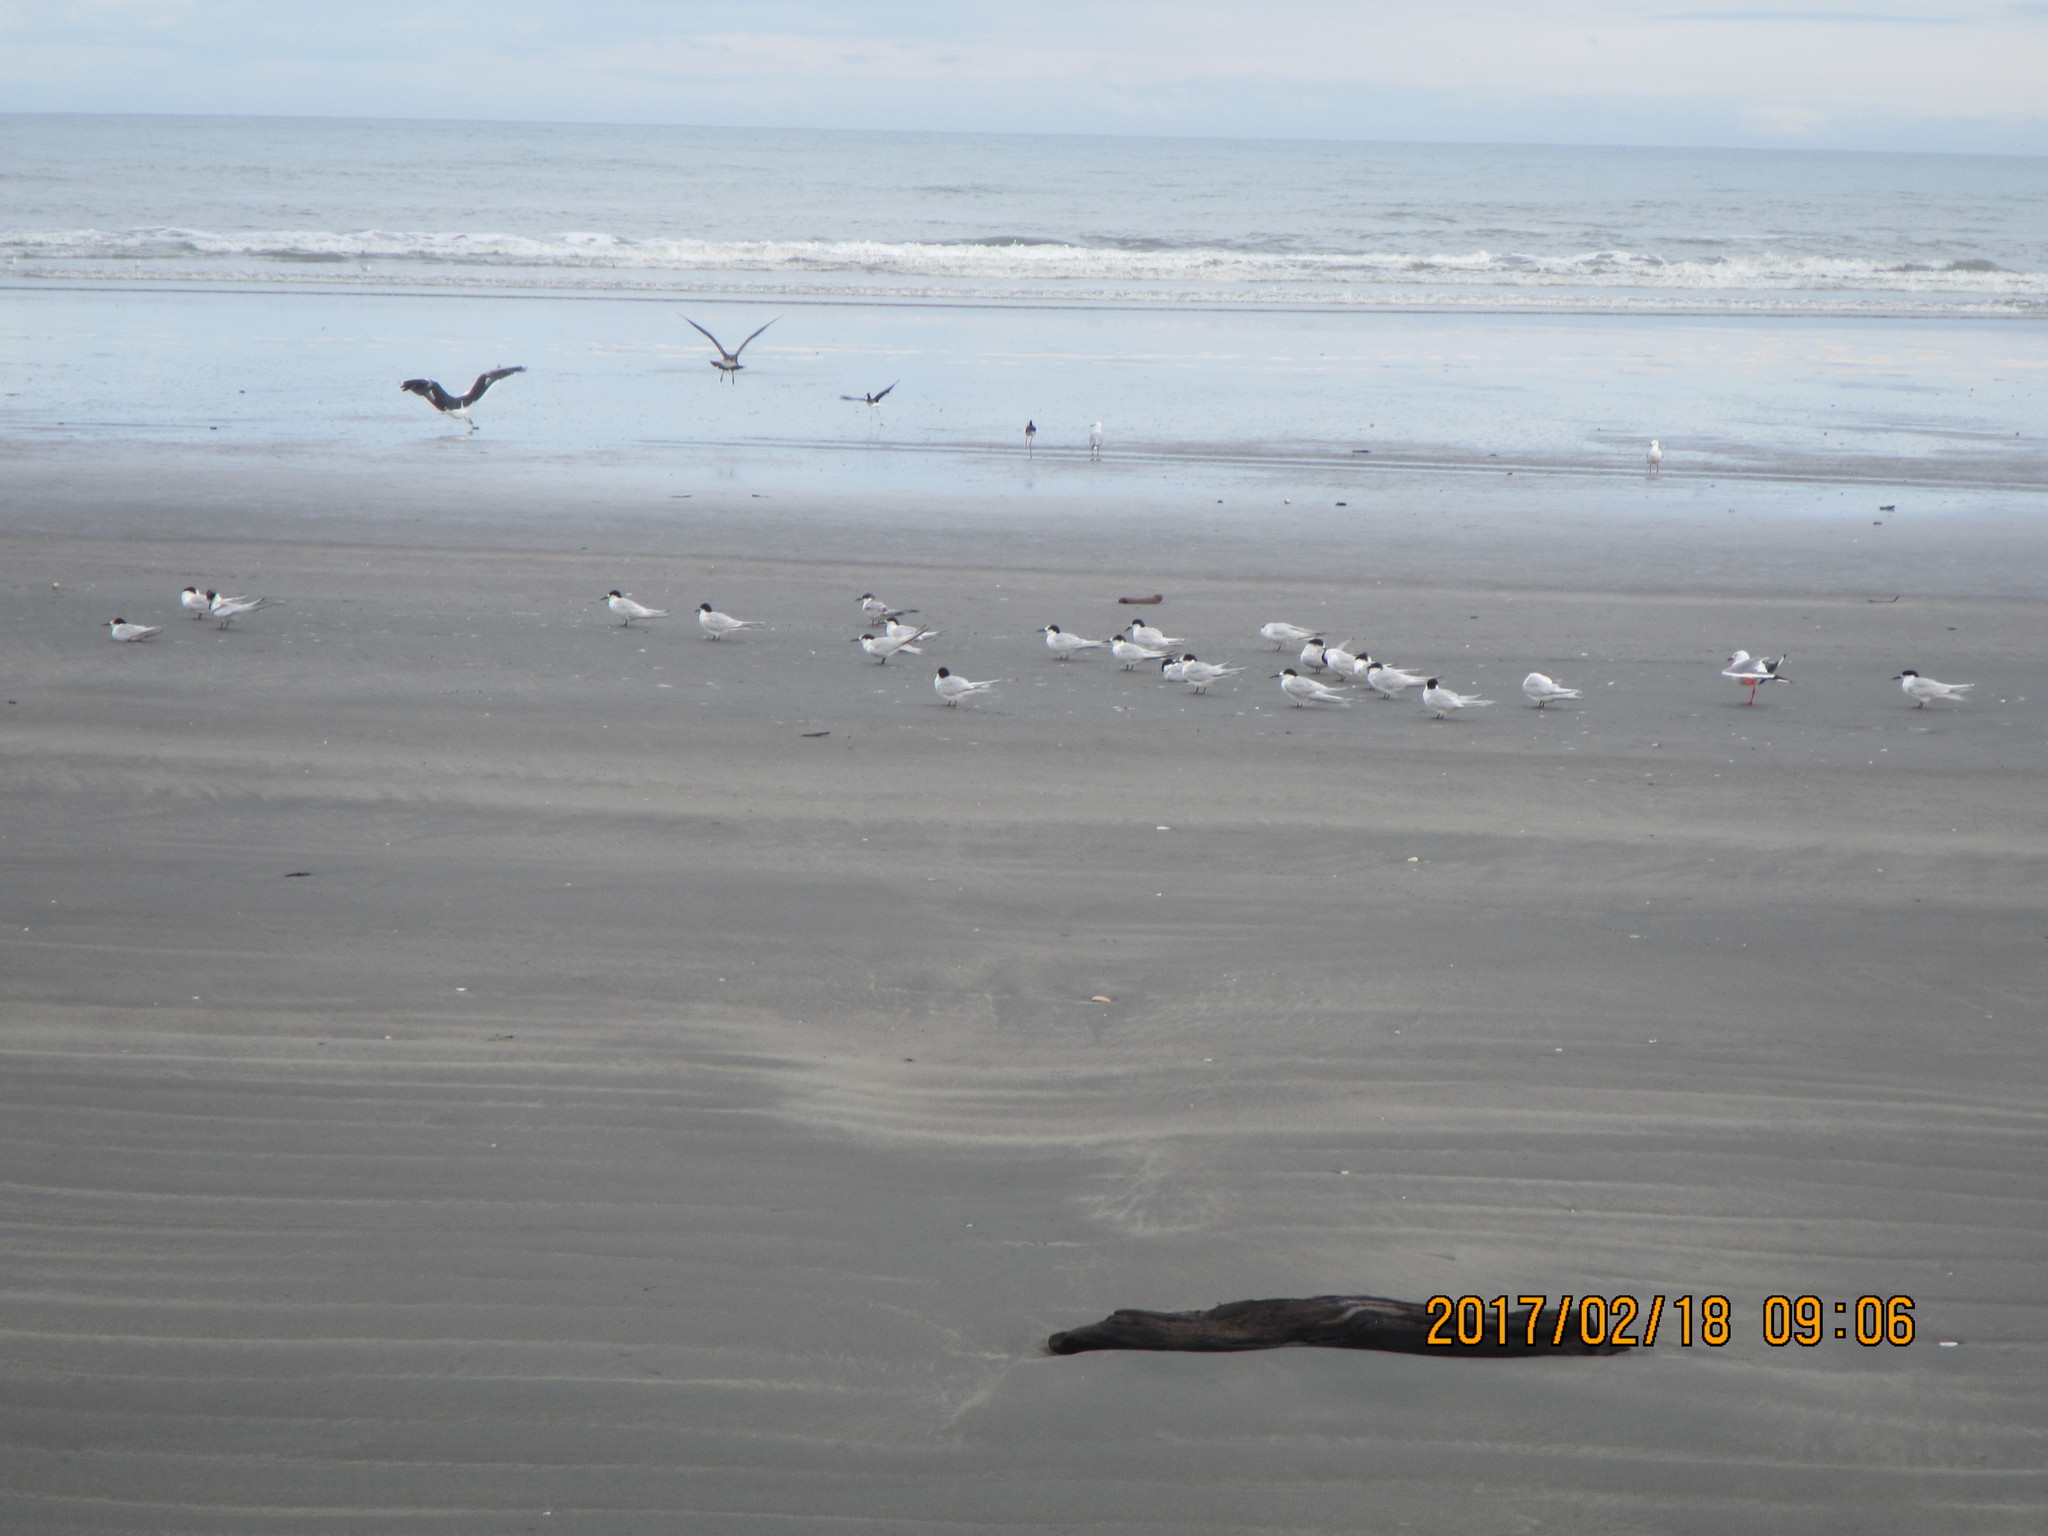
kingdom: Animalia
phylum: Chordata
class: Aves
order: Charadriiformes
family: Laridae
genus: Sterna
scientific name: Sterna striata
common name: White-fronted tern
